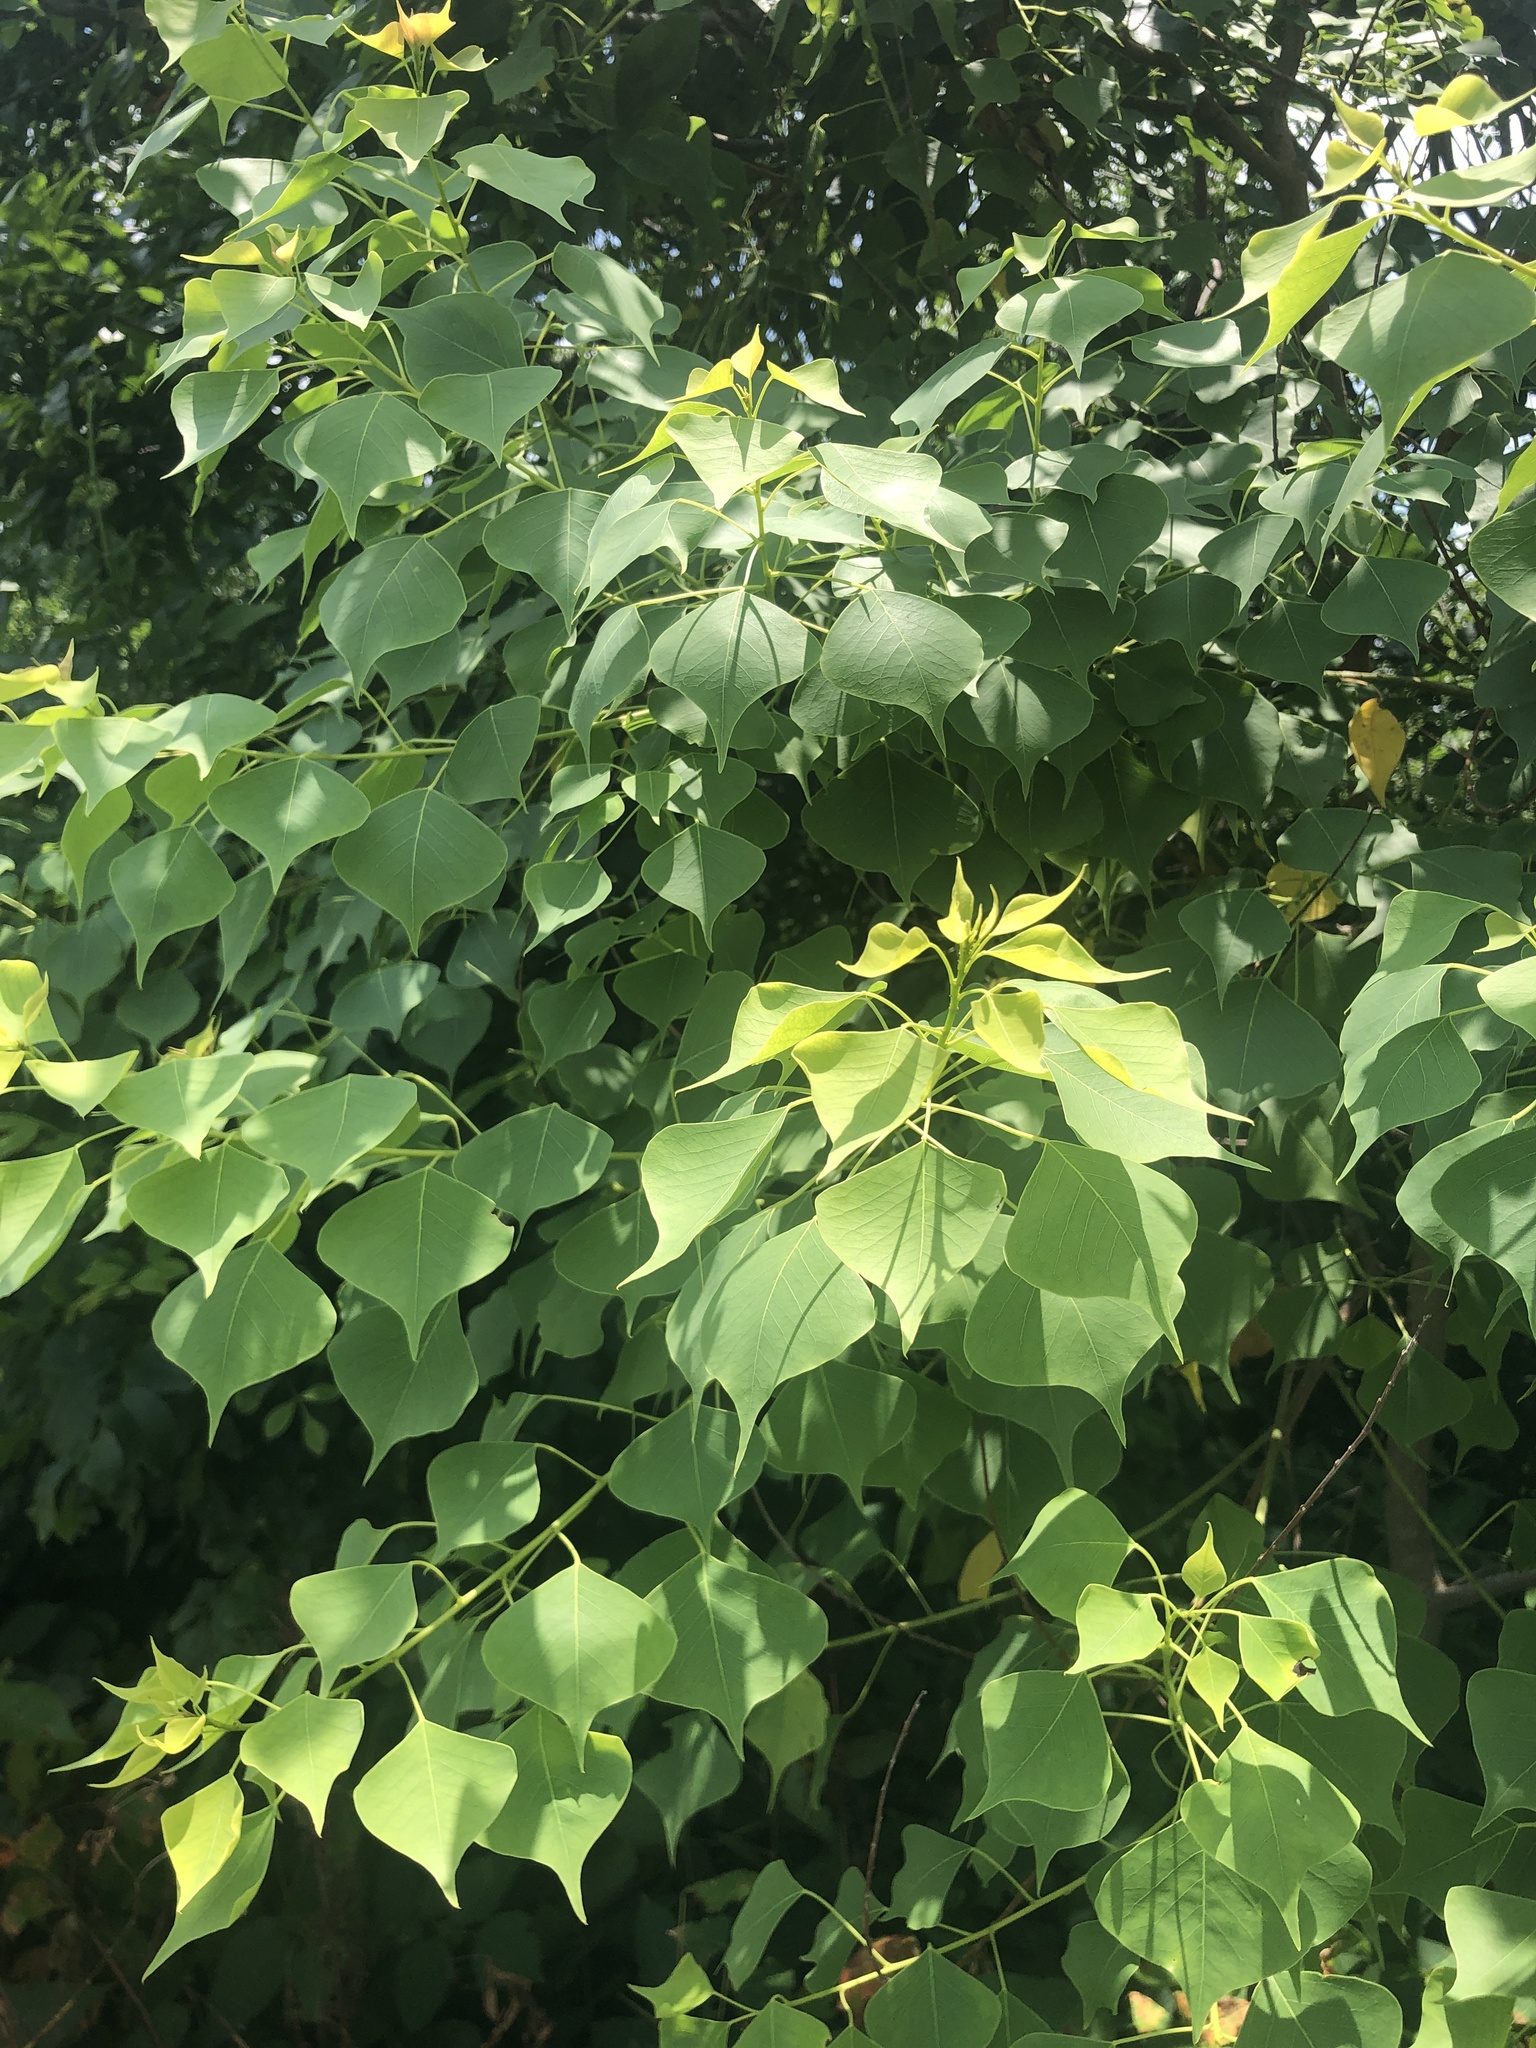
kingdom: Plantae
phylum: Tracheophyta
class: Magnoliopsida
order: Malpighiales
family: Euphorbiaceae
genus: Triadica
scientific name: Triadica sebifera
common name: Chinese tallow
